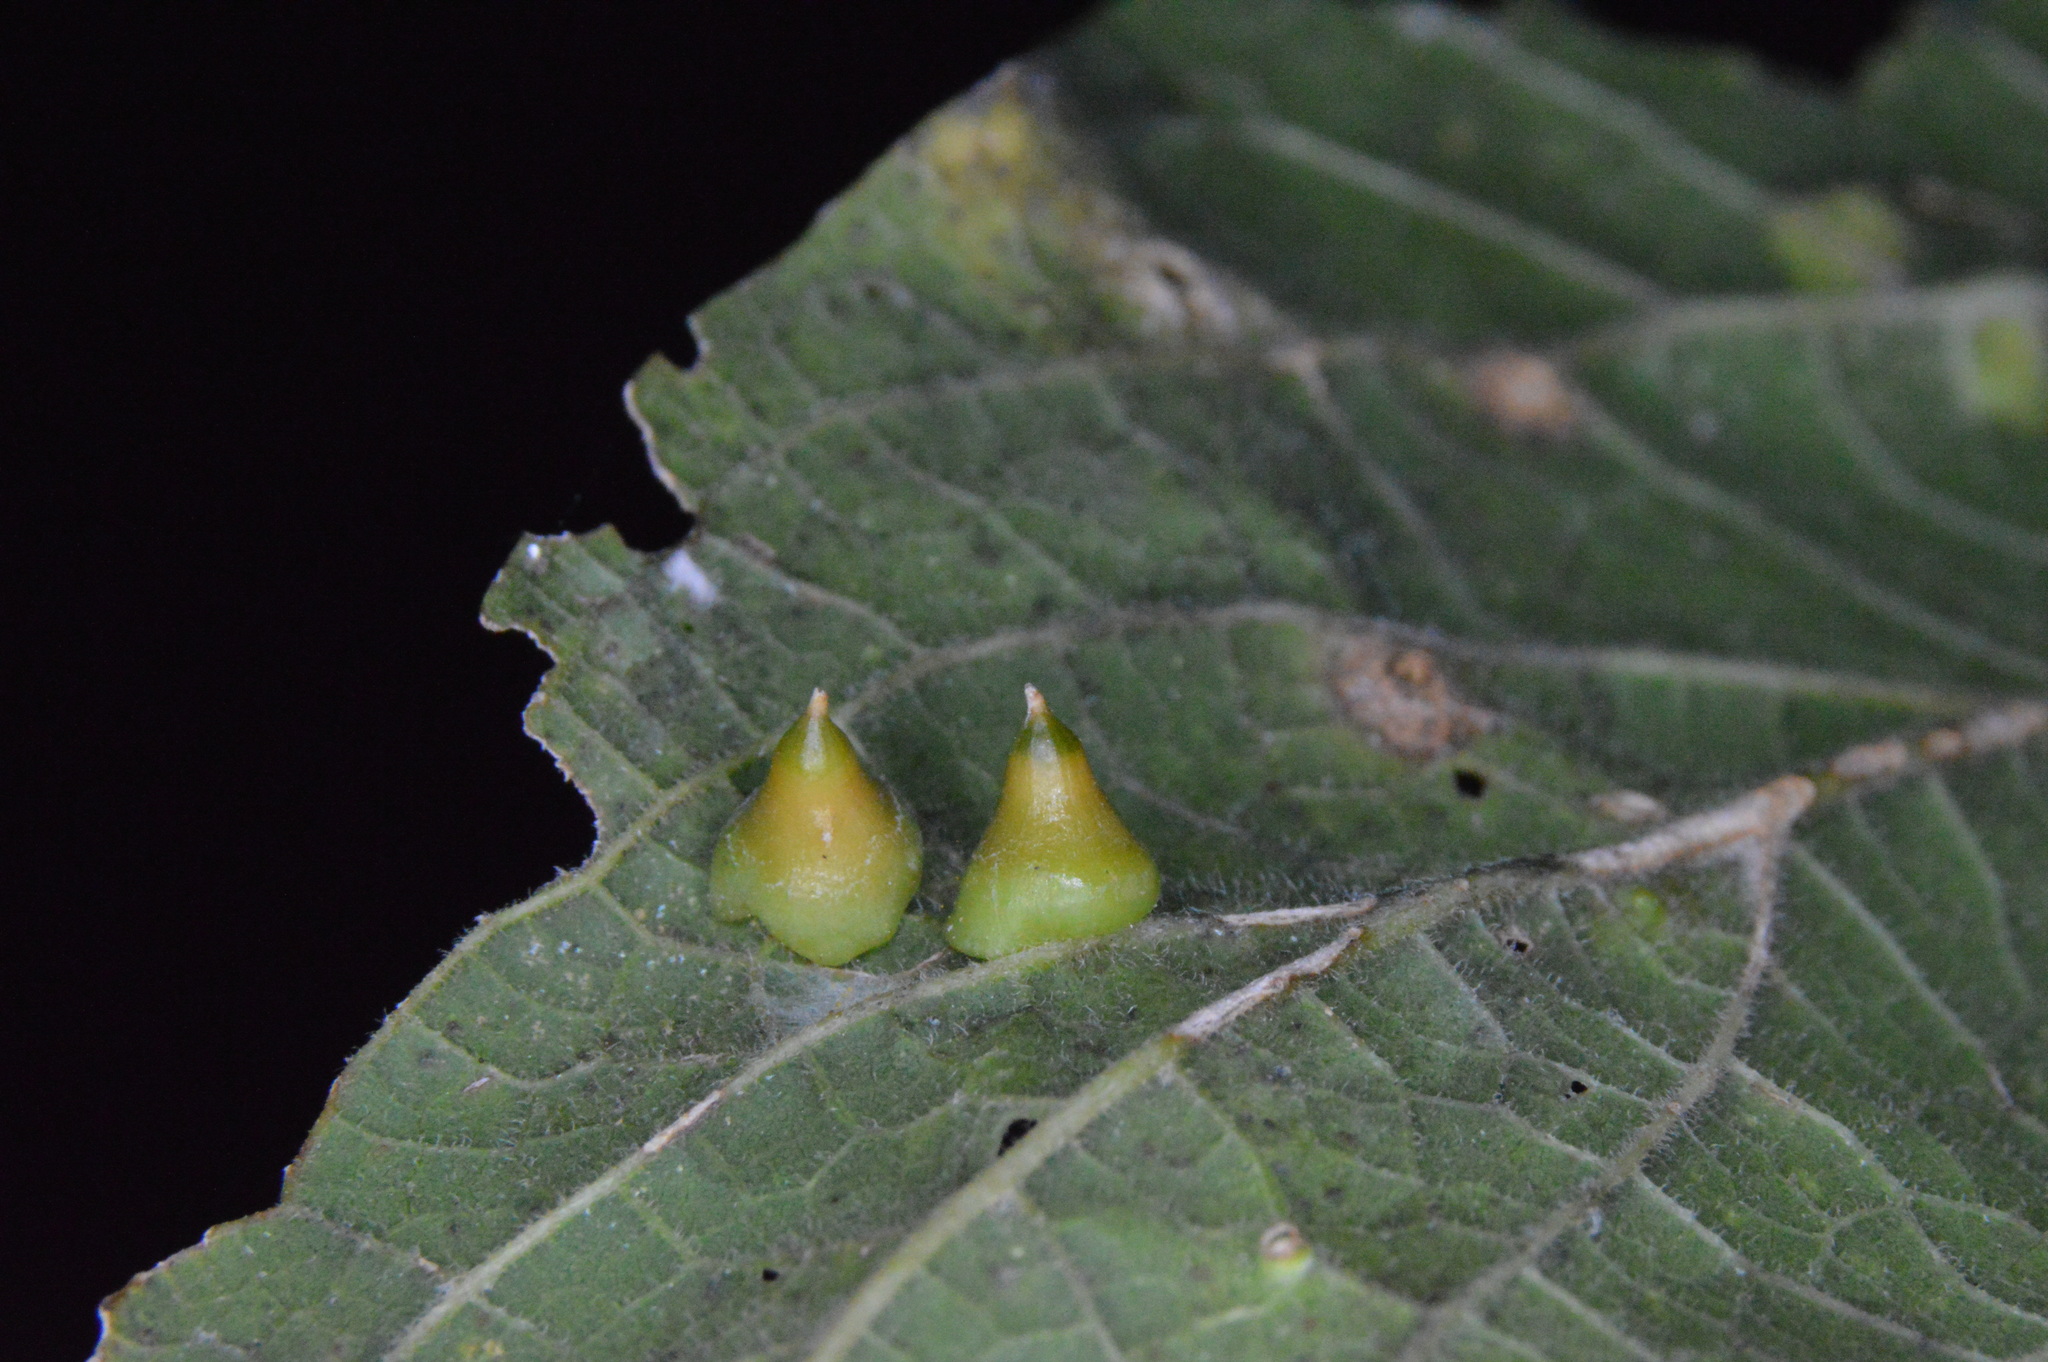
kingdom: Animalia
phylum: Arthropoda
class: Insecta
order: Diptera
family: Cecidomyiidae
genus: Celticecis
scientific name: Celticecis spiniformis
